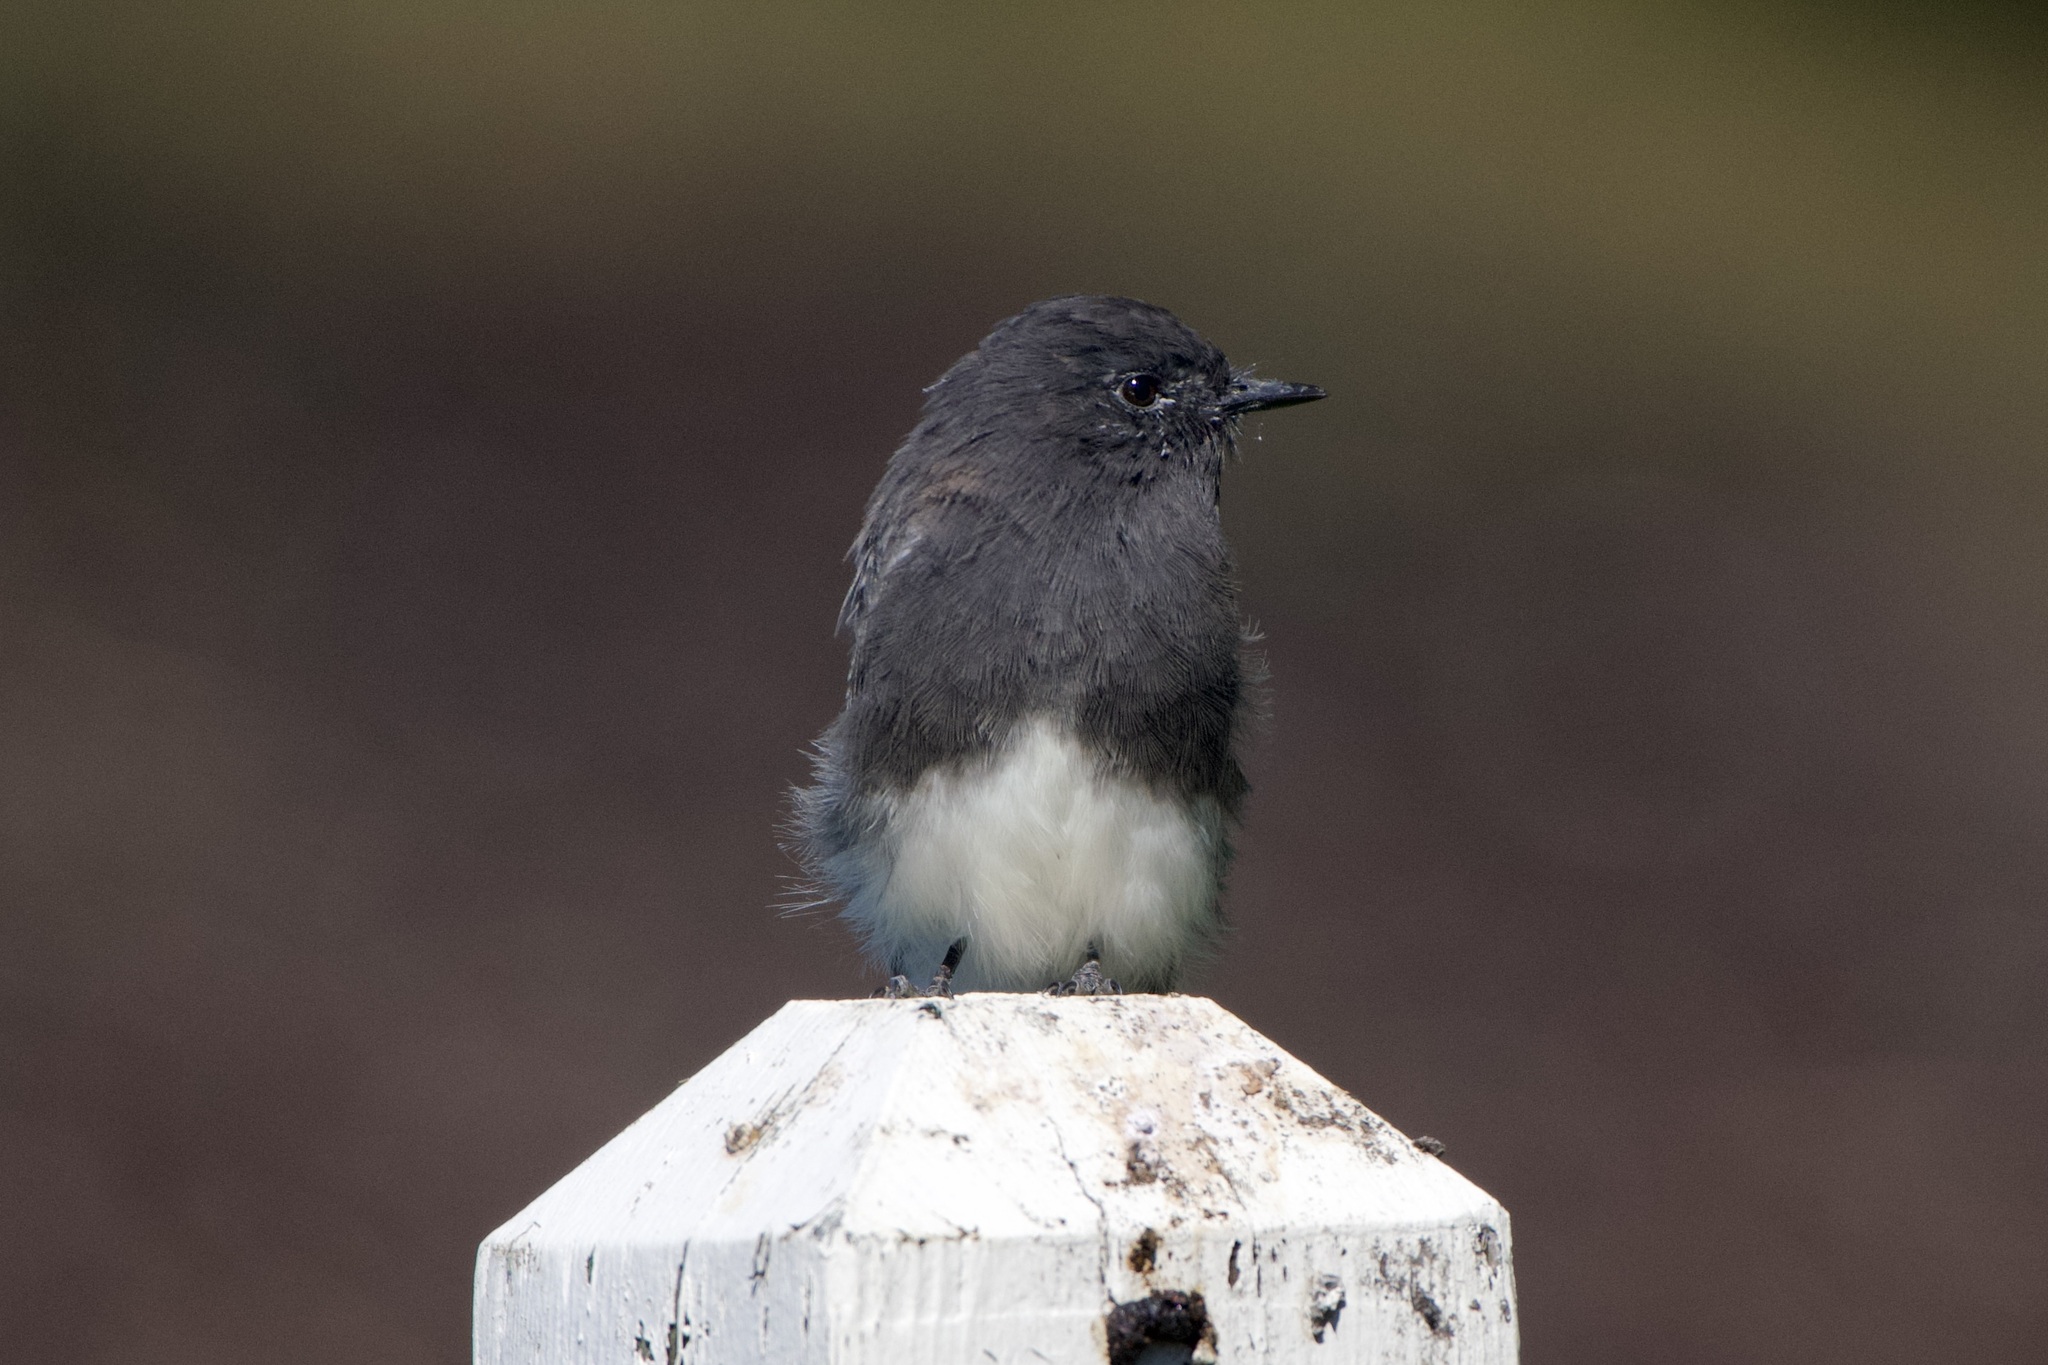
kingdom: Animalia
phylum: Chordata
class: Aves
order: Passeriformes
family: Tyrannidae
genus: Sayornis
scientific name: Sayornis nigricans
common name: Black phoebe
